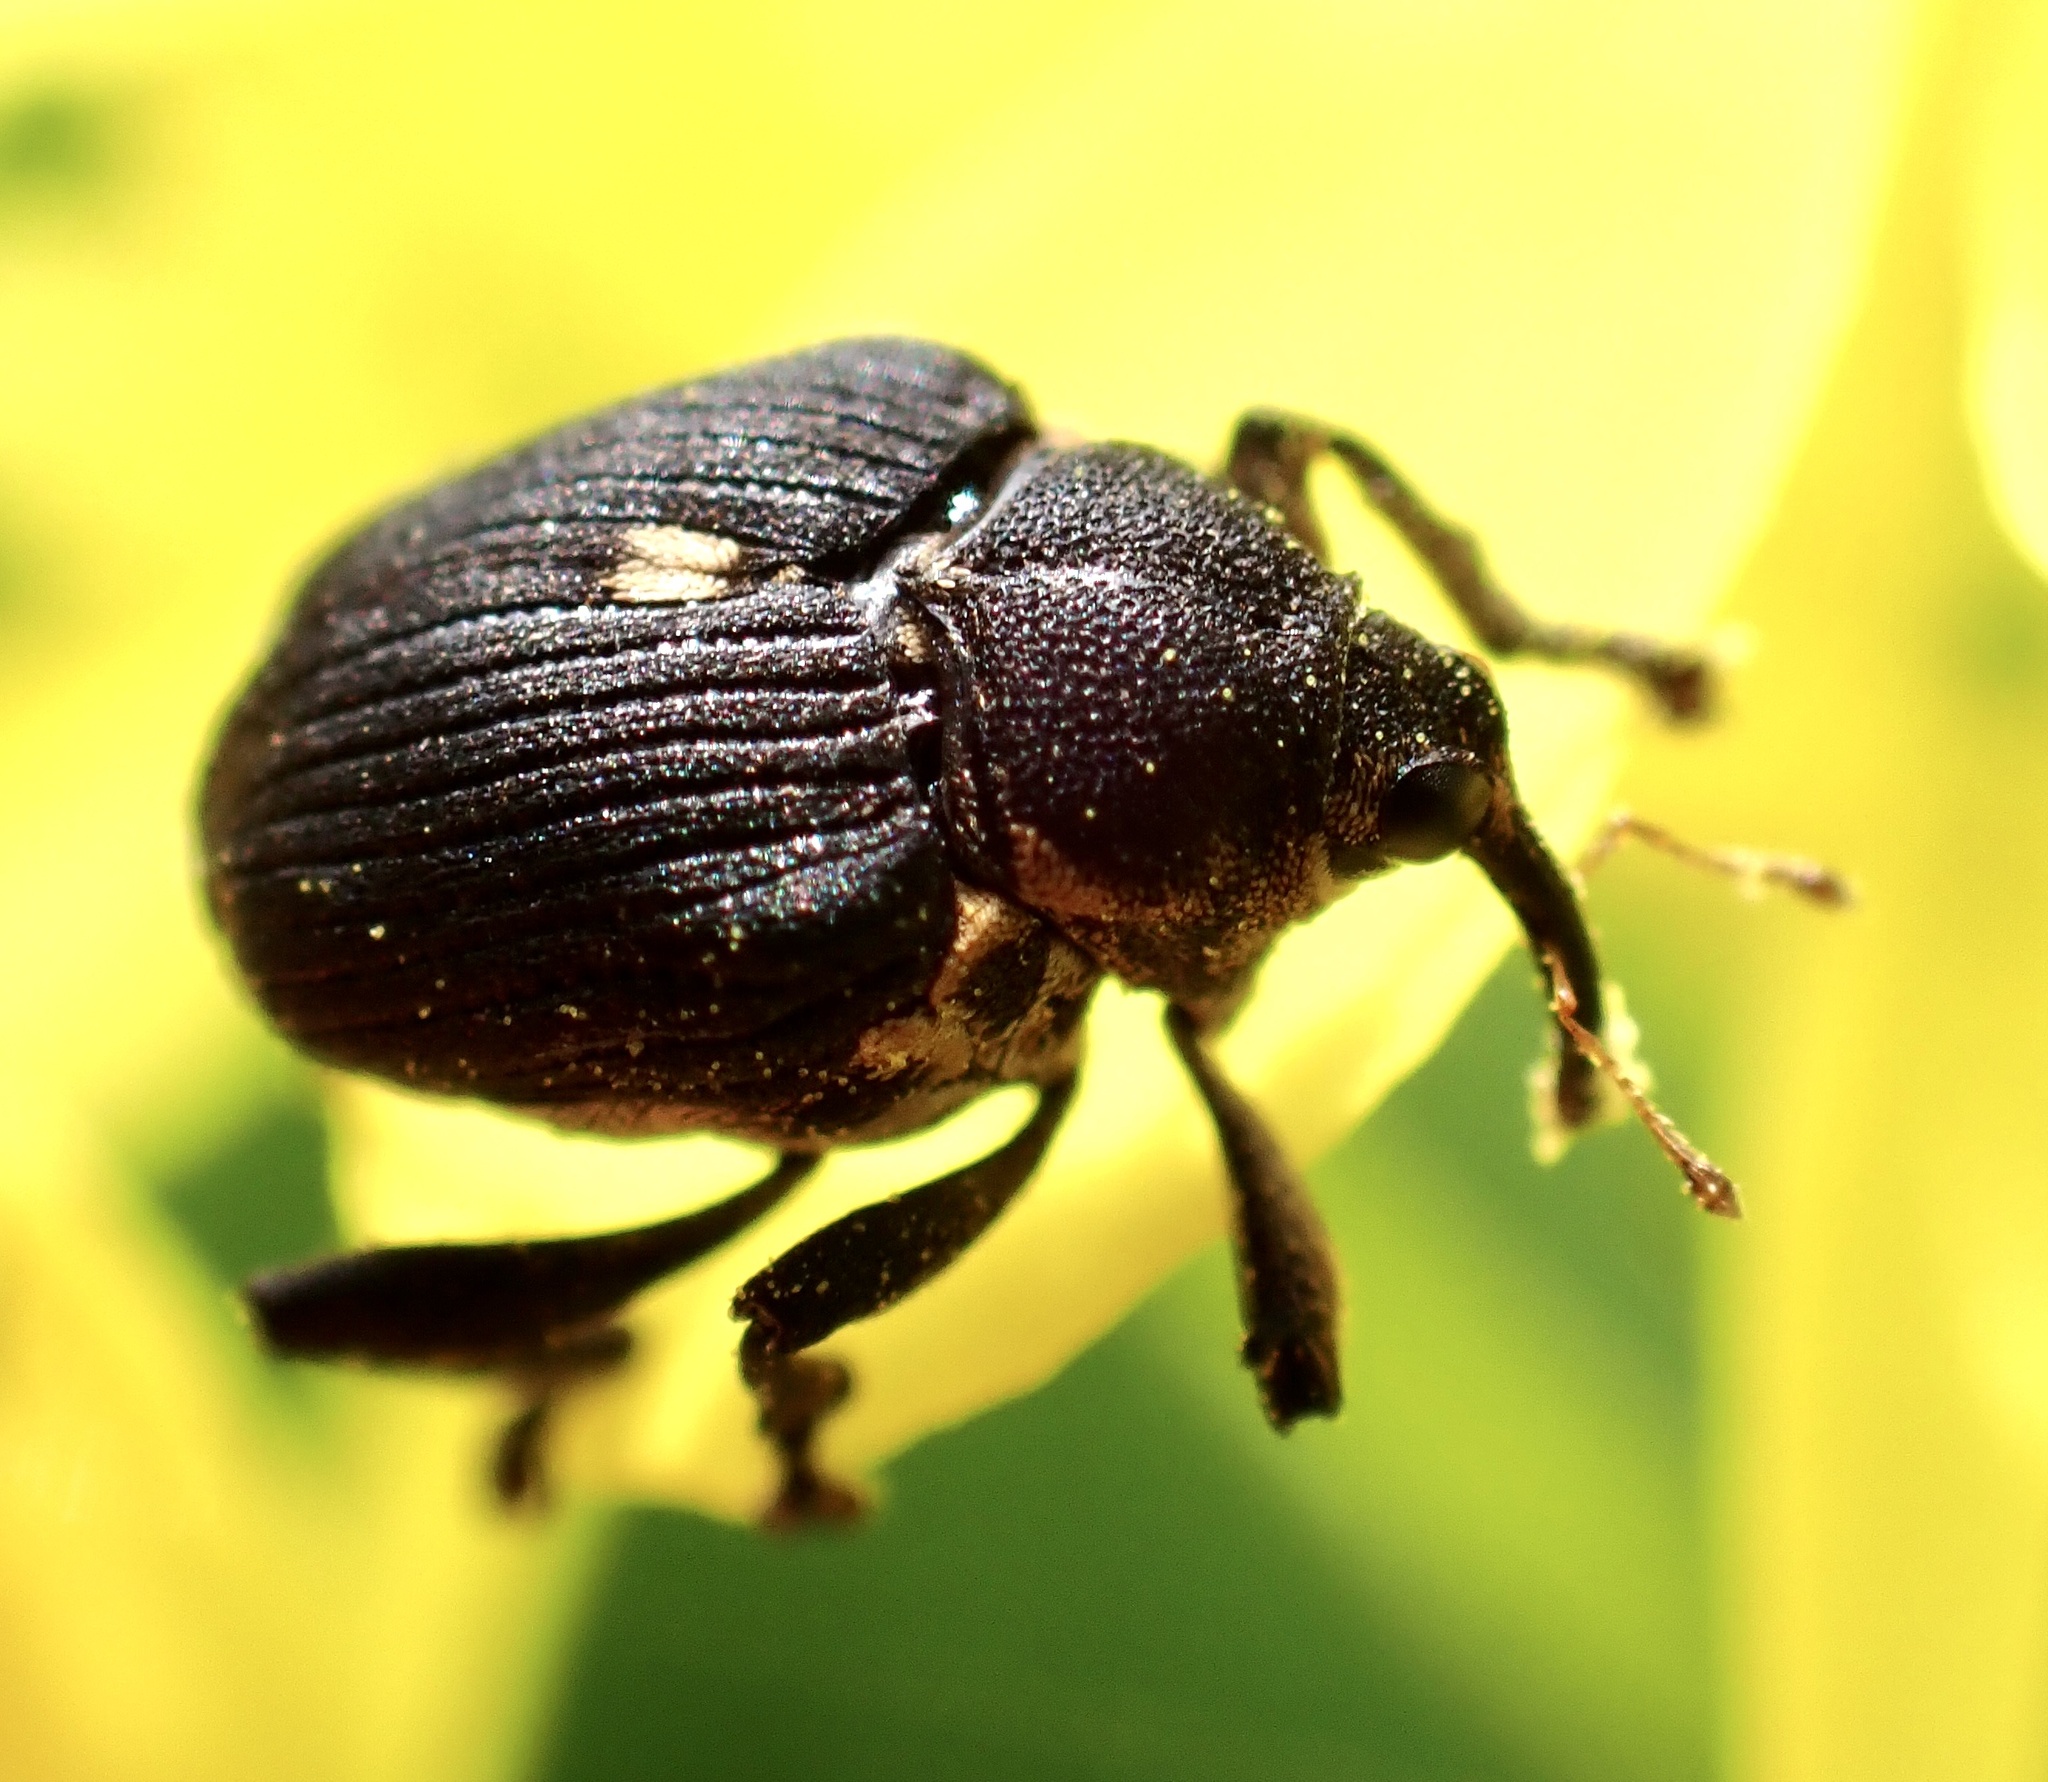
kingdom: Animalia
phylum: Arthropoda
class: Insecta
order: Coleoptera
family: Curculionidae
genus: Mononychus
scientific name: Mononychus punctumalbum
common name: Iris weevil
